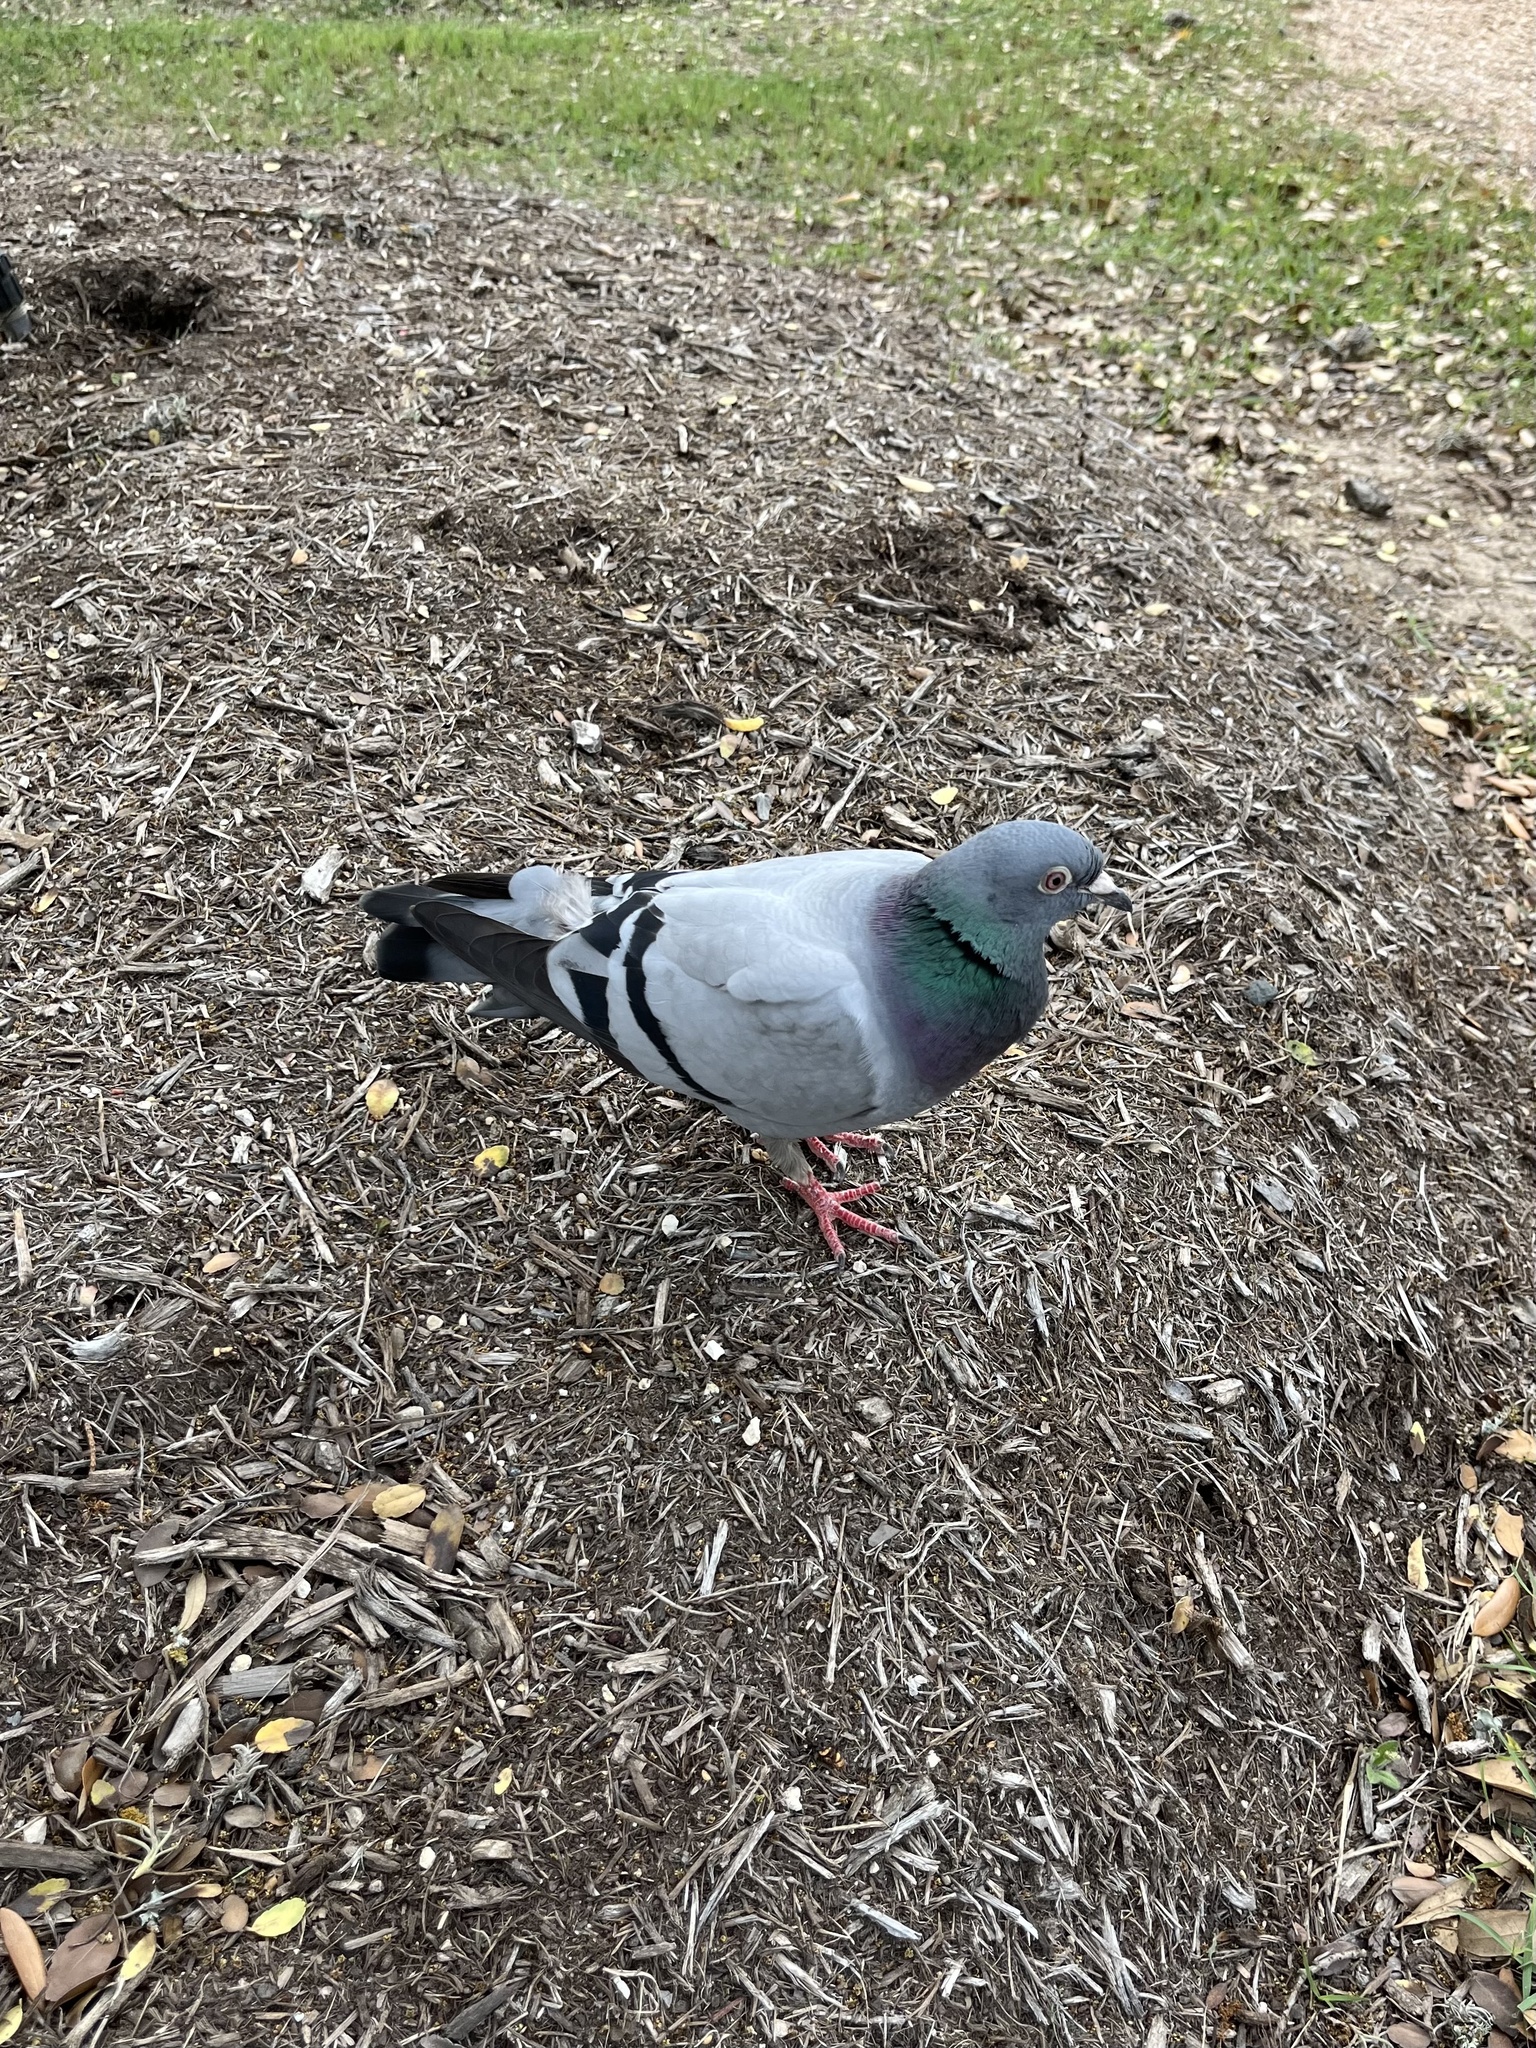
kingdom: Animalia
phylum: Chordata
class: Aves
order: Columbiformes
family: Columbidae
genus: Columba
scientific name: Columba livia
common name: Rock pigeon
